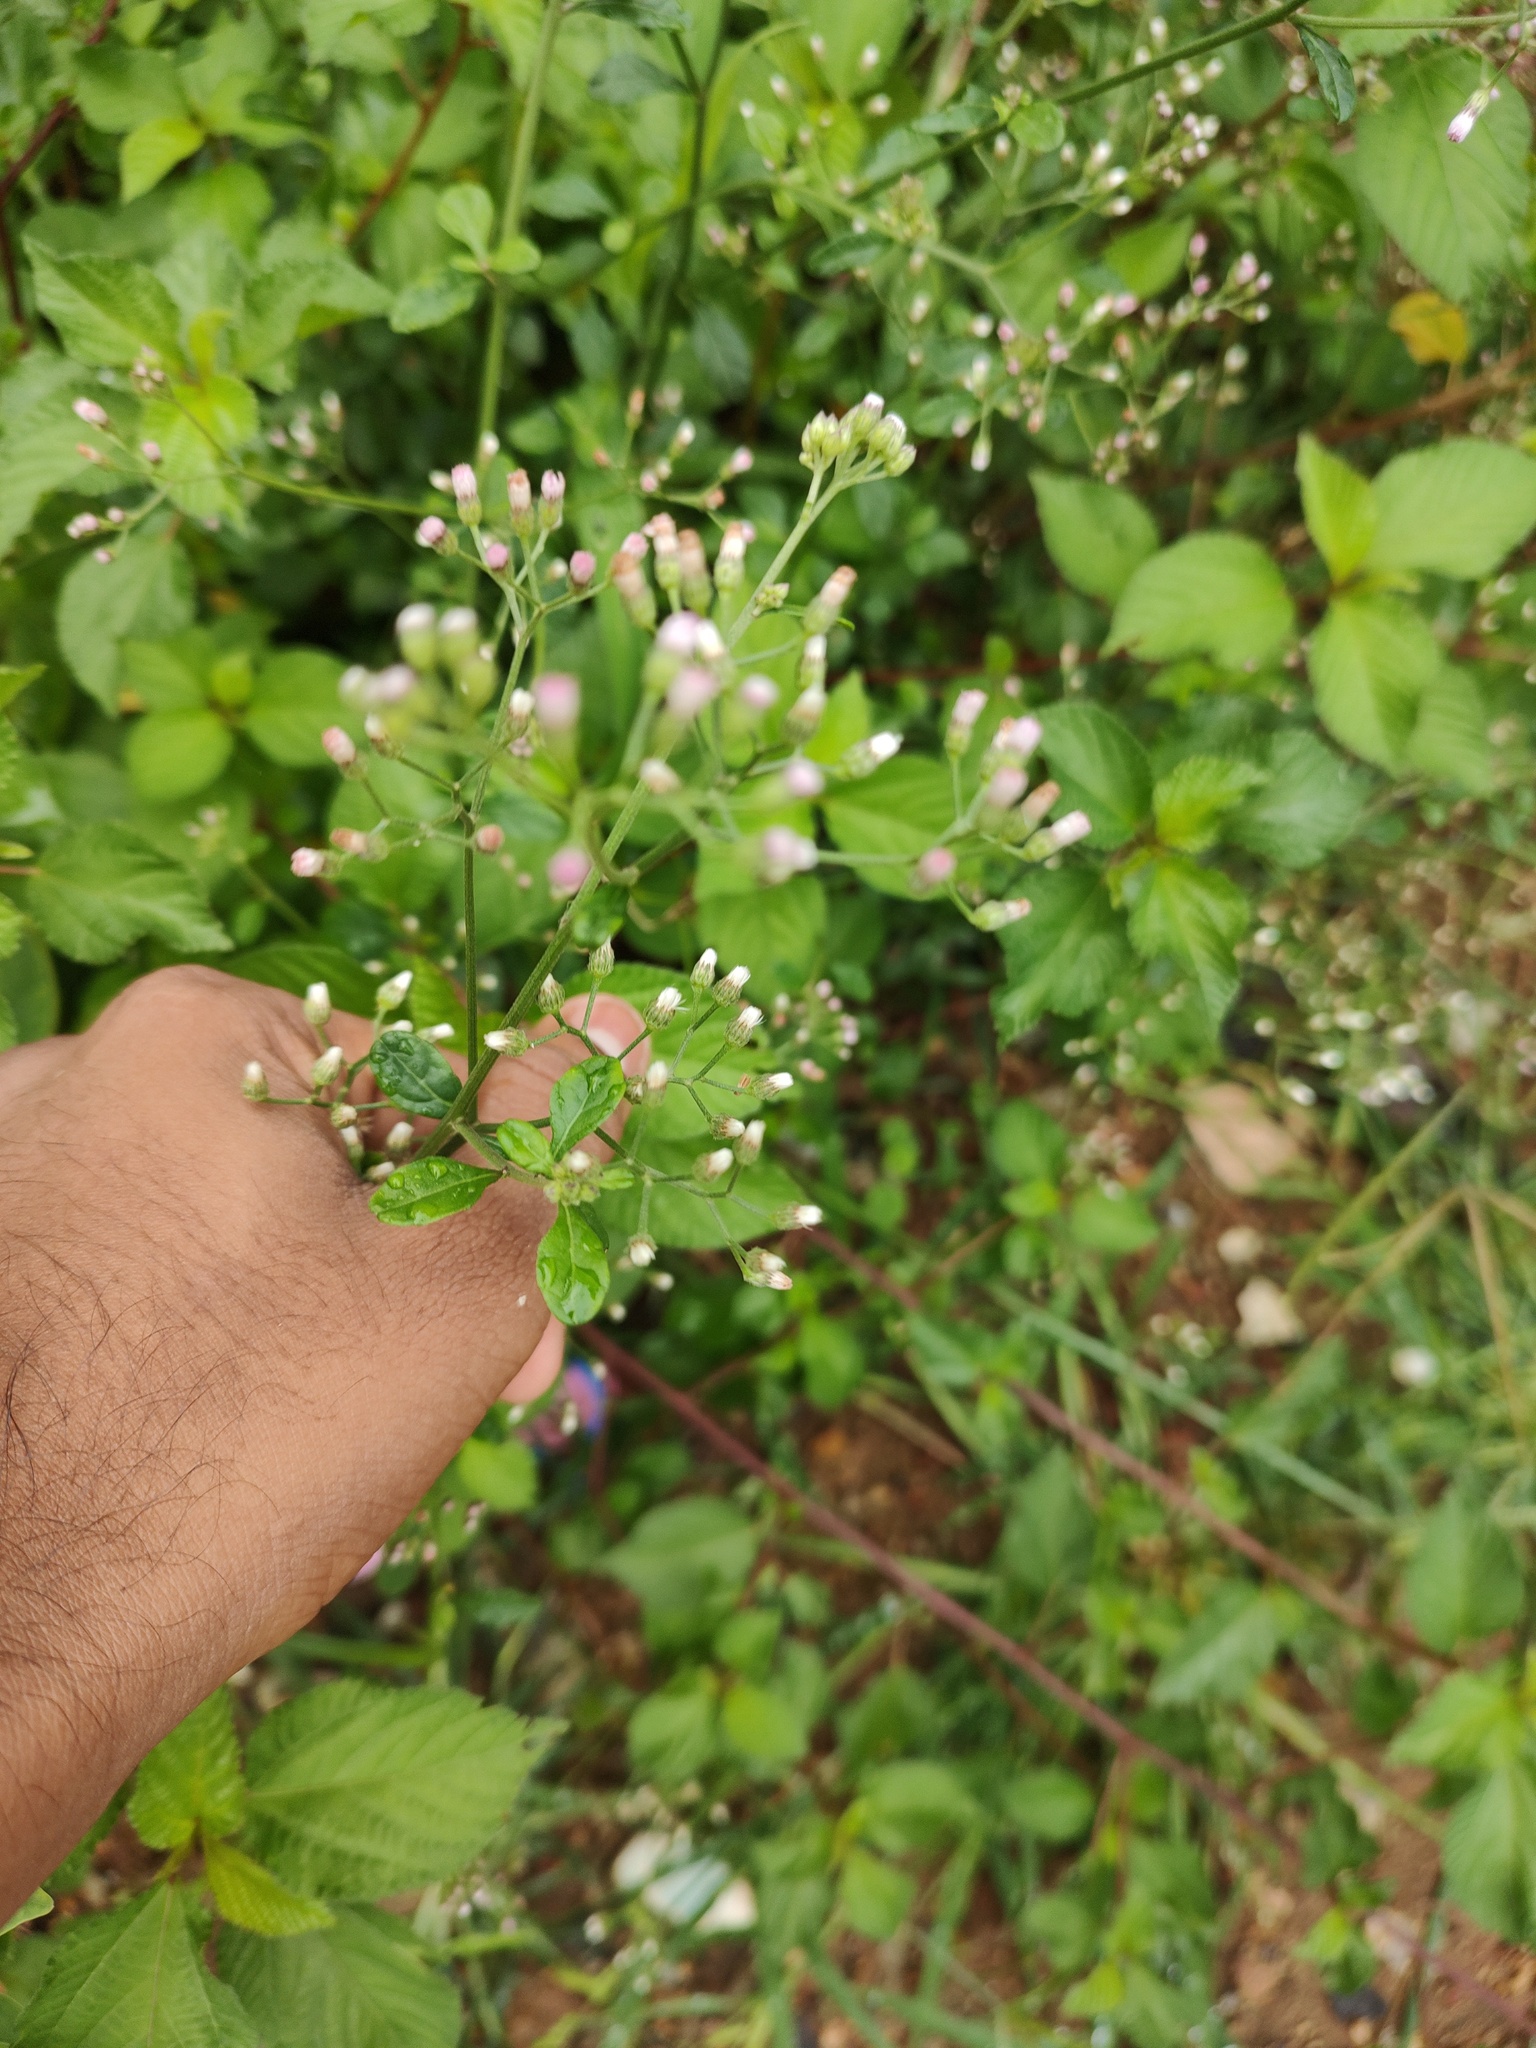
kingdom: Plantae
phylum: Tracheophyta
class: Magnoliopsida
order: Asterales
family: Asteraceae
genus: Cyanthillium
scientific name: Cyanthillium cinereum
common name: Little ironweed
